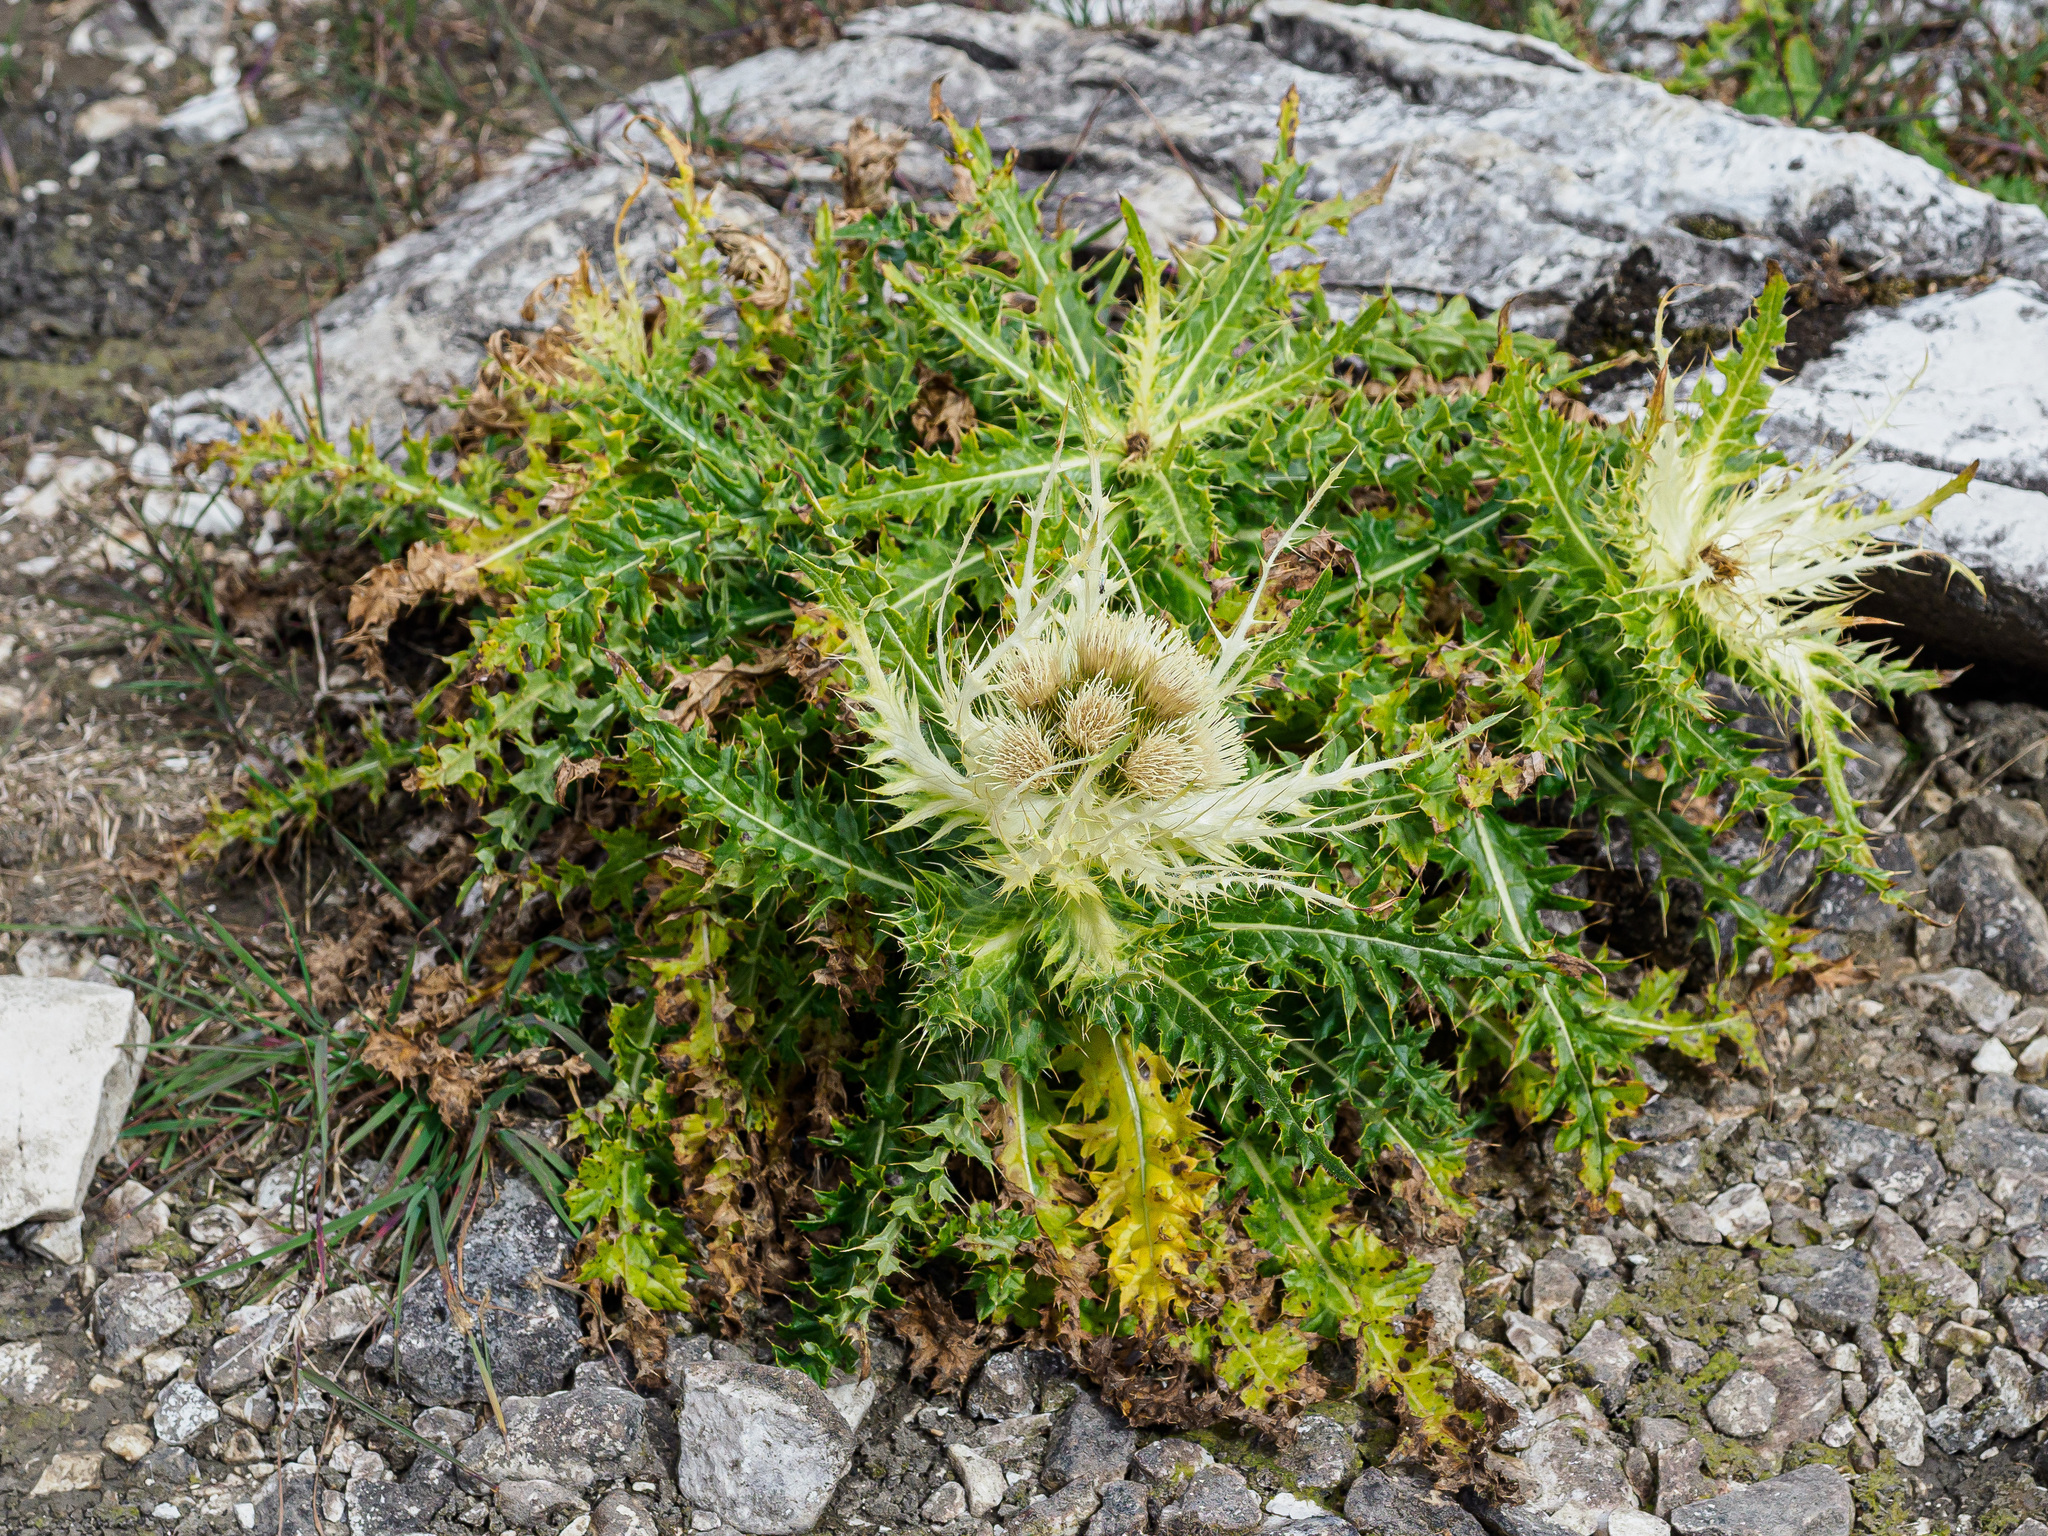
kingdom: Plantae
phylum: Tracheophyta
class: Magnoliopsida
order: Asterales
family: Asteraceae
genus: Cirsium
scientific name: Cirsium spinosissimum
